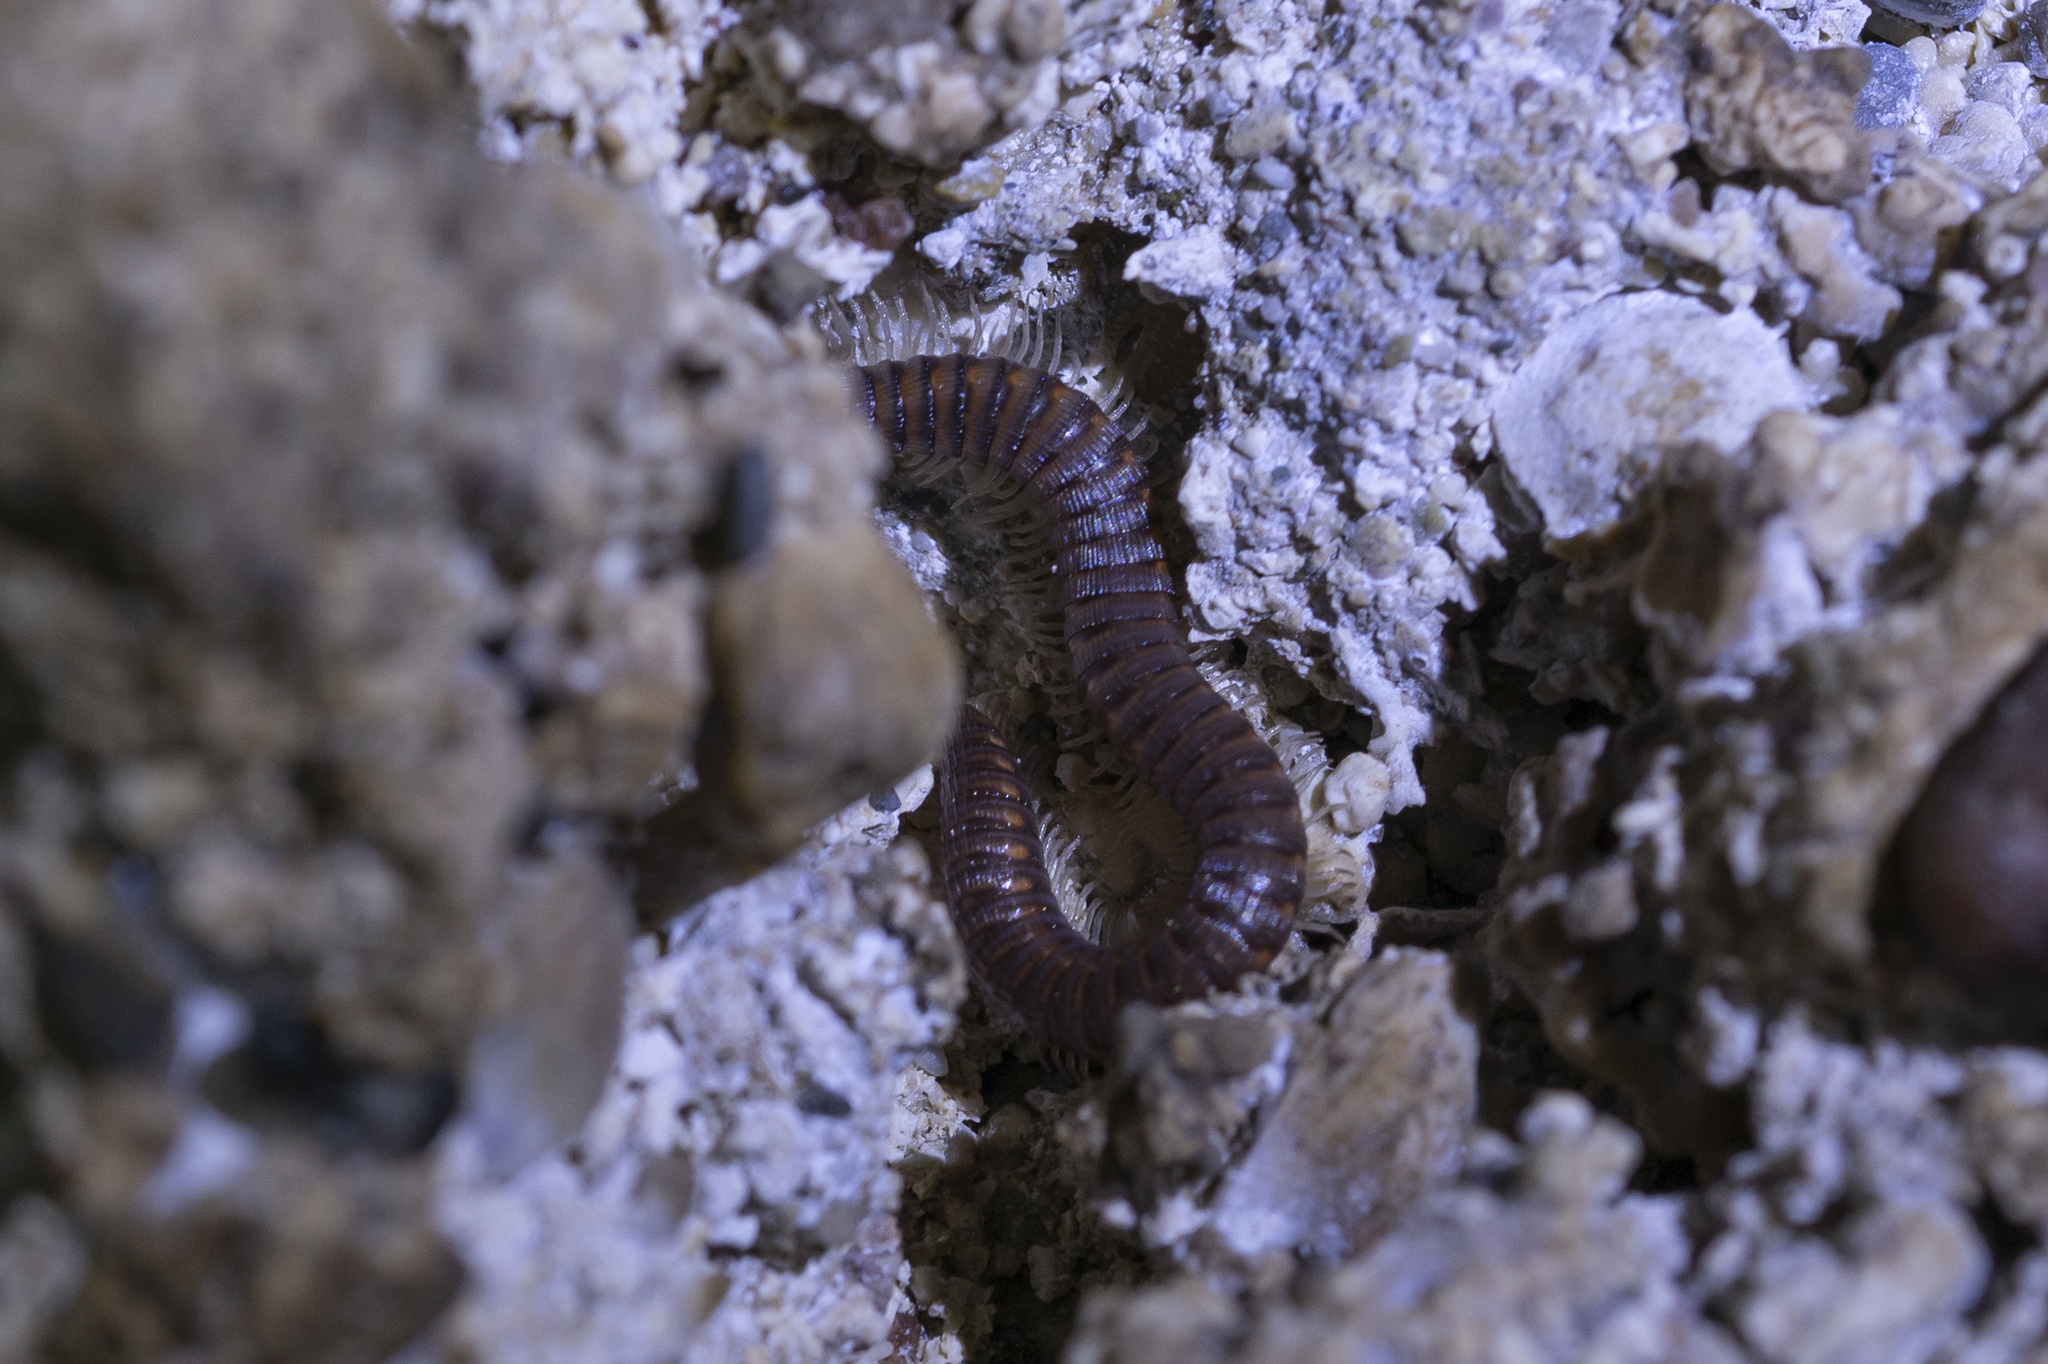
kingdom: Animalia
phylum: Arthropoda
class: Diplopoda
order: Callipodida
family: Schizopetalidae
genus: Eurygyrus
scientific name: Eurygyrus rhodius
